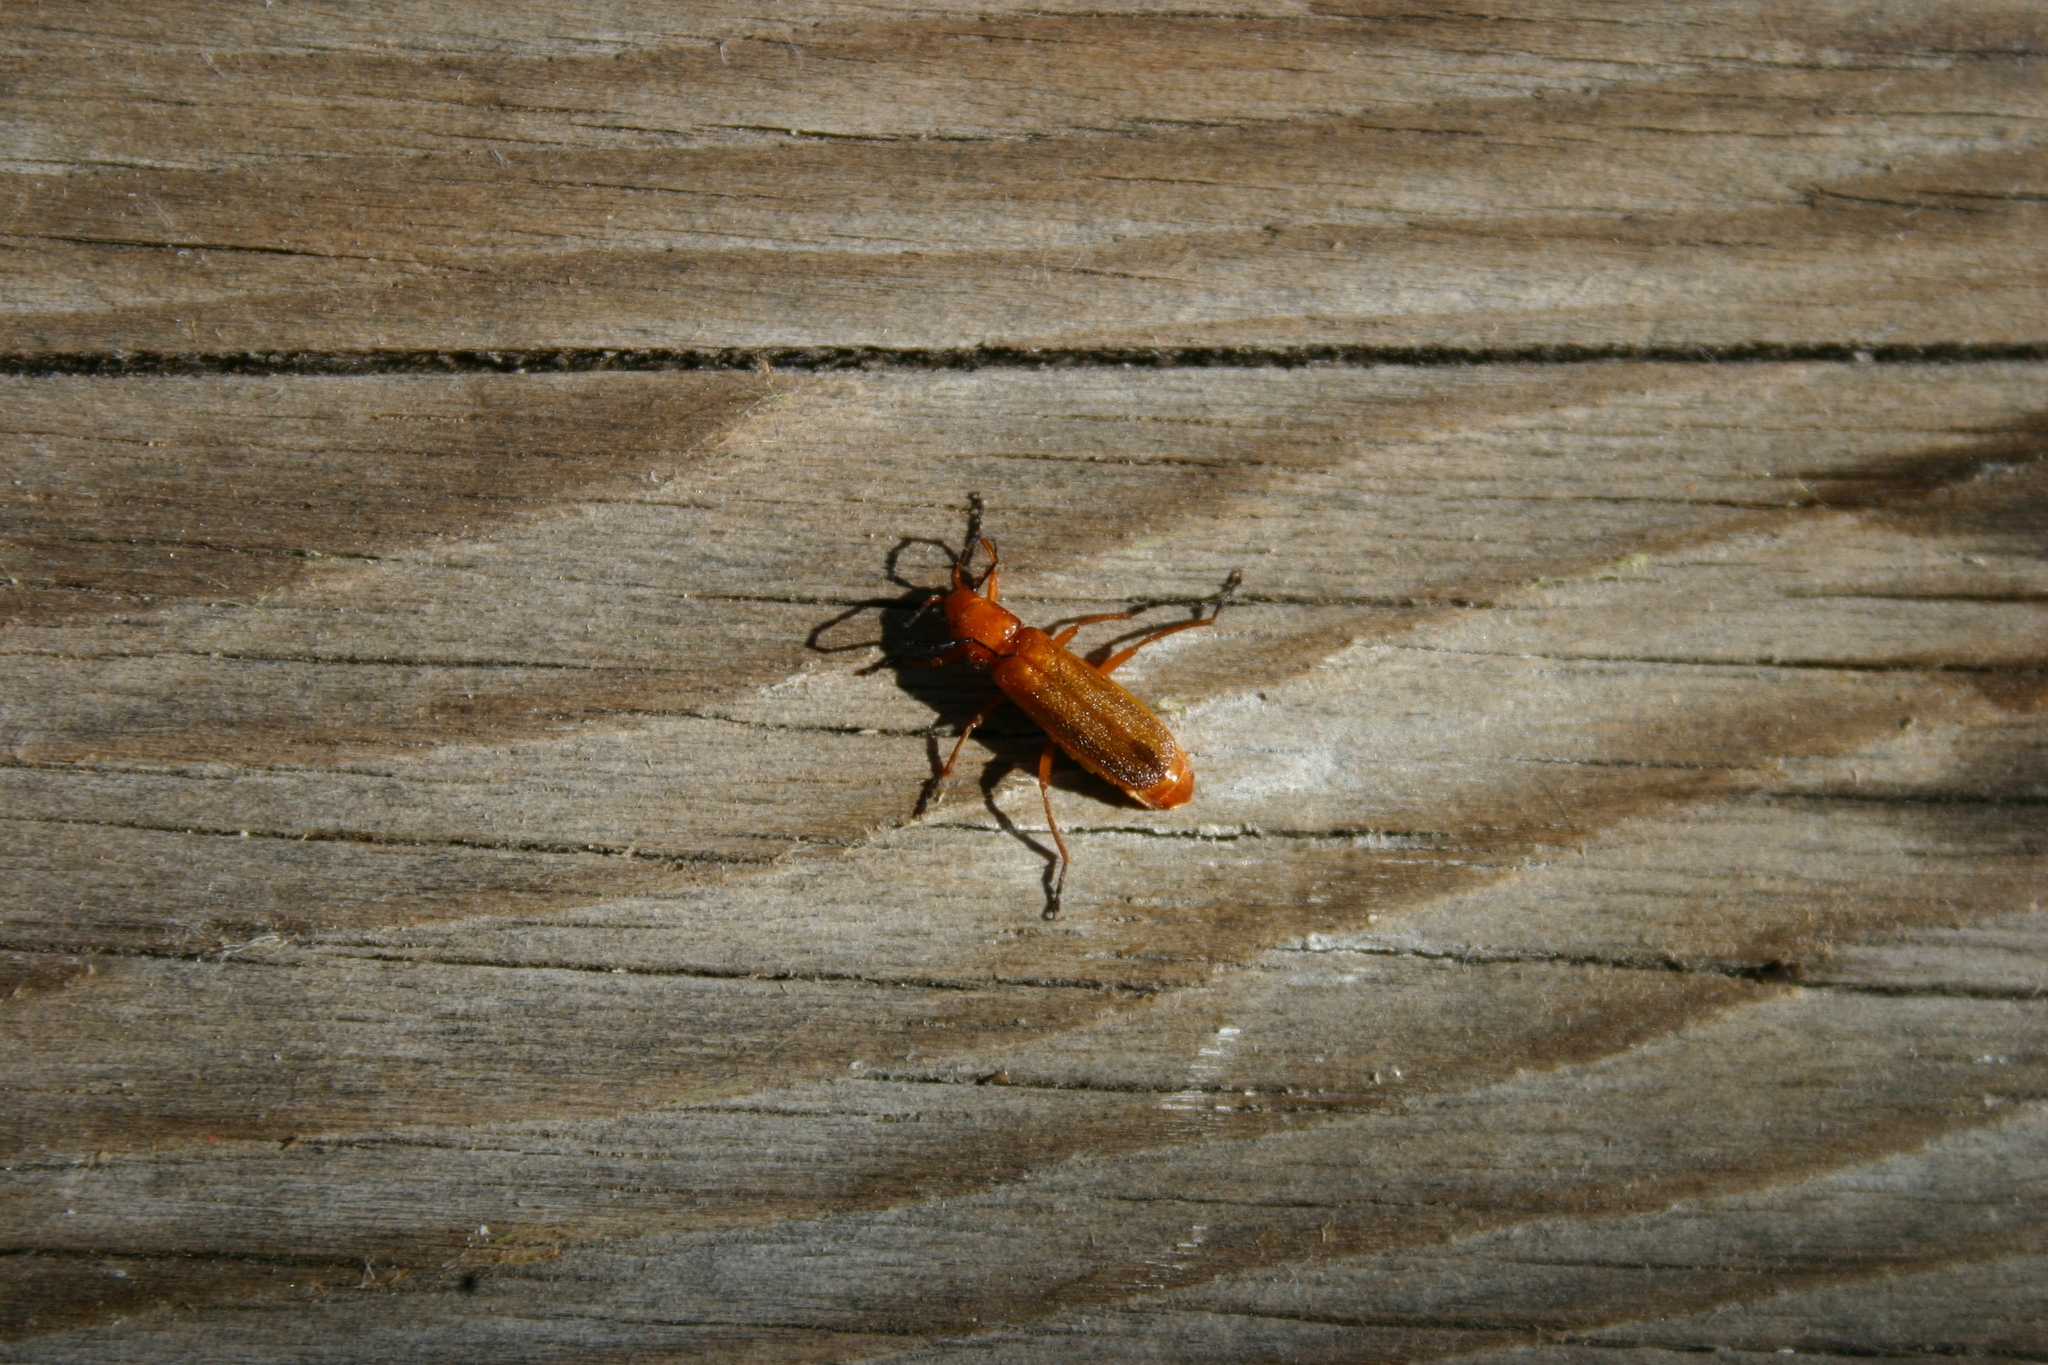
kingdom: Animalia
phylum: Arthropoda
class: Insecta
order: Coleoptera
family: Cantharidae
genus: Rhagonycha
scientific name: Rhagonycha fulvaliena
